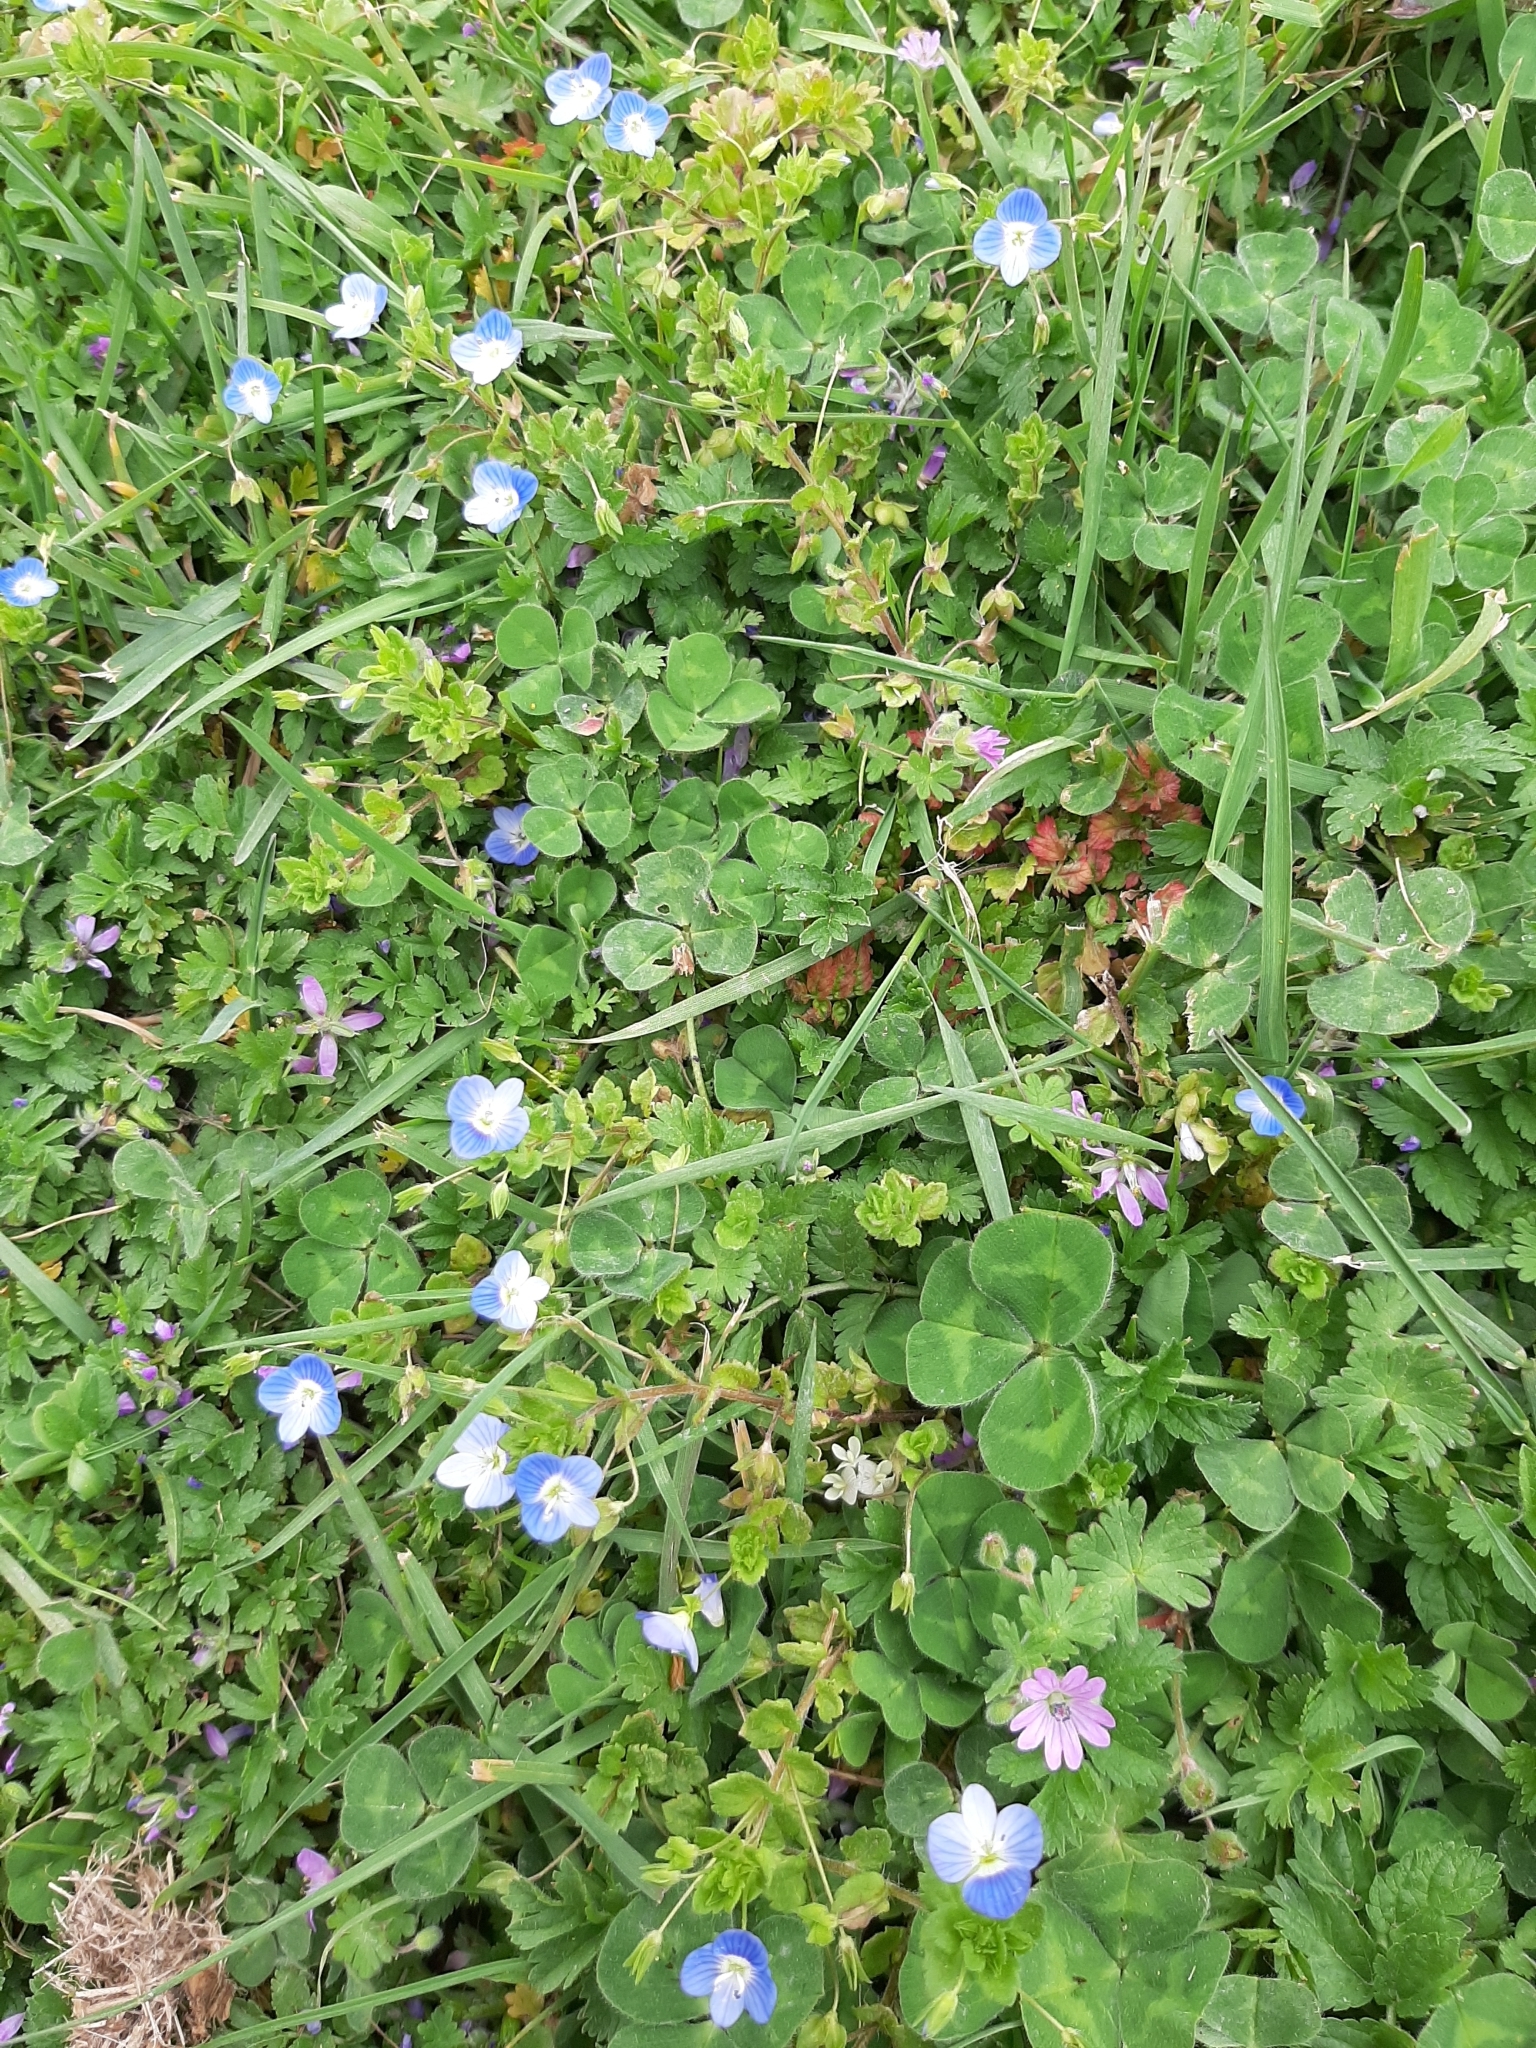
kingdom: Plantae
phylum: Tracheophyta
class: Magnoliopsida
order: Lamiales
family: Plantaginaceae
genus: Veronica
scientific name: Veronica persica
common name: Common field-speedwell
